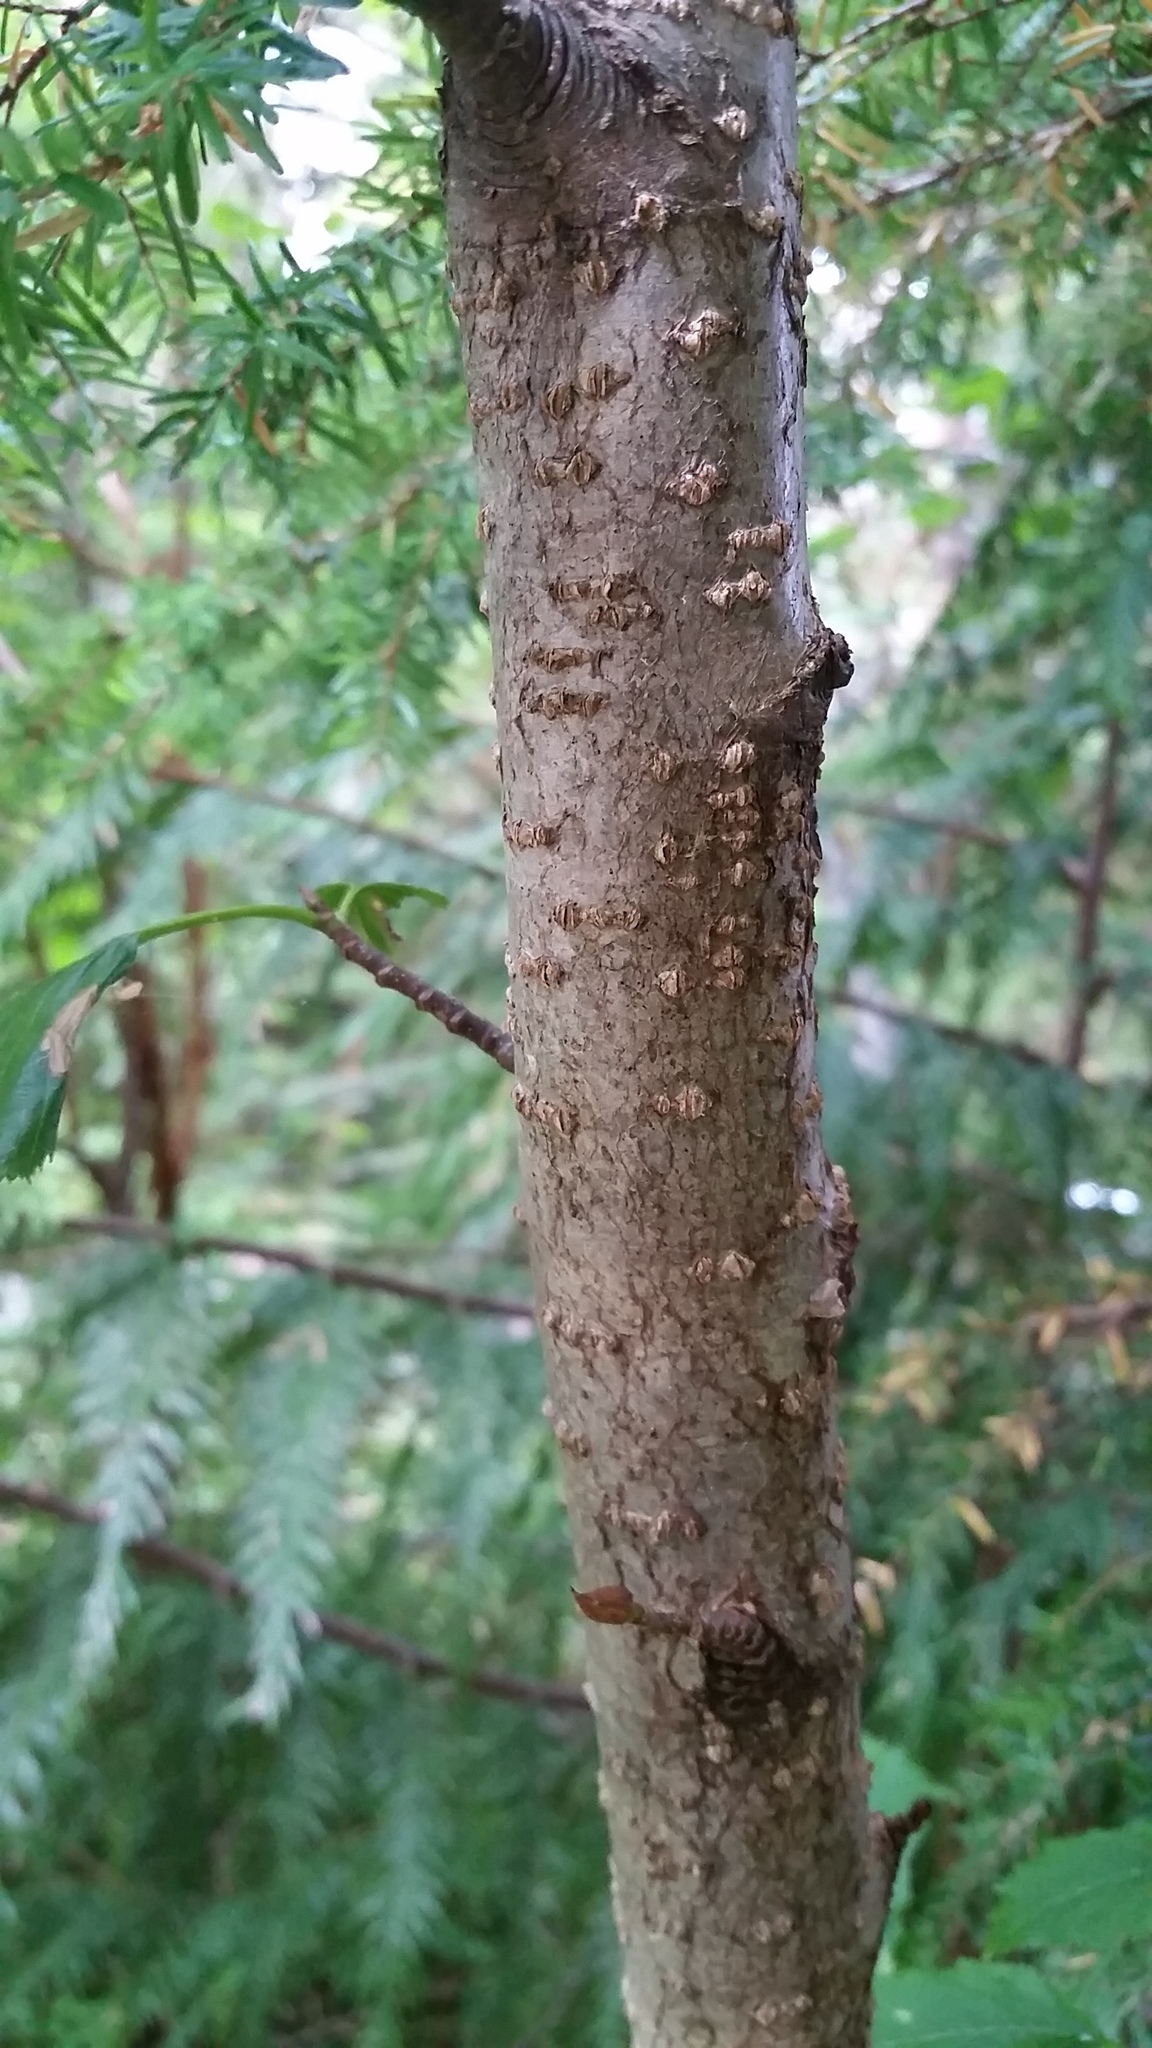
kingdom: Plantae
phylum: Tracheophyta
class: Magnoliopsida
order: Fagales
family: Betulaceae
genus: Alnus
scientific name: Alnus alnobetula
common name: Green alder
